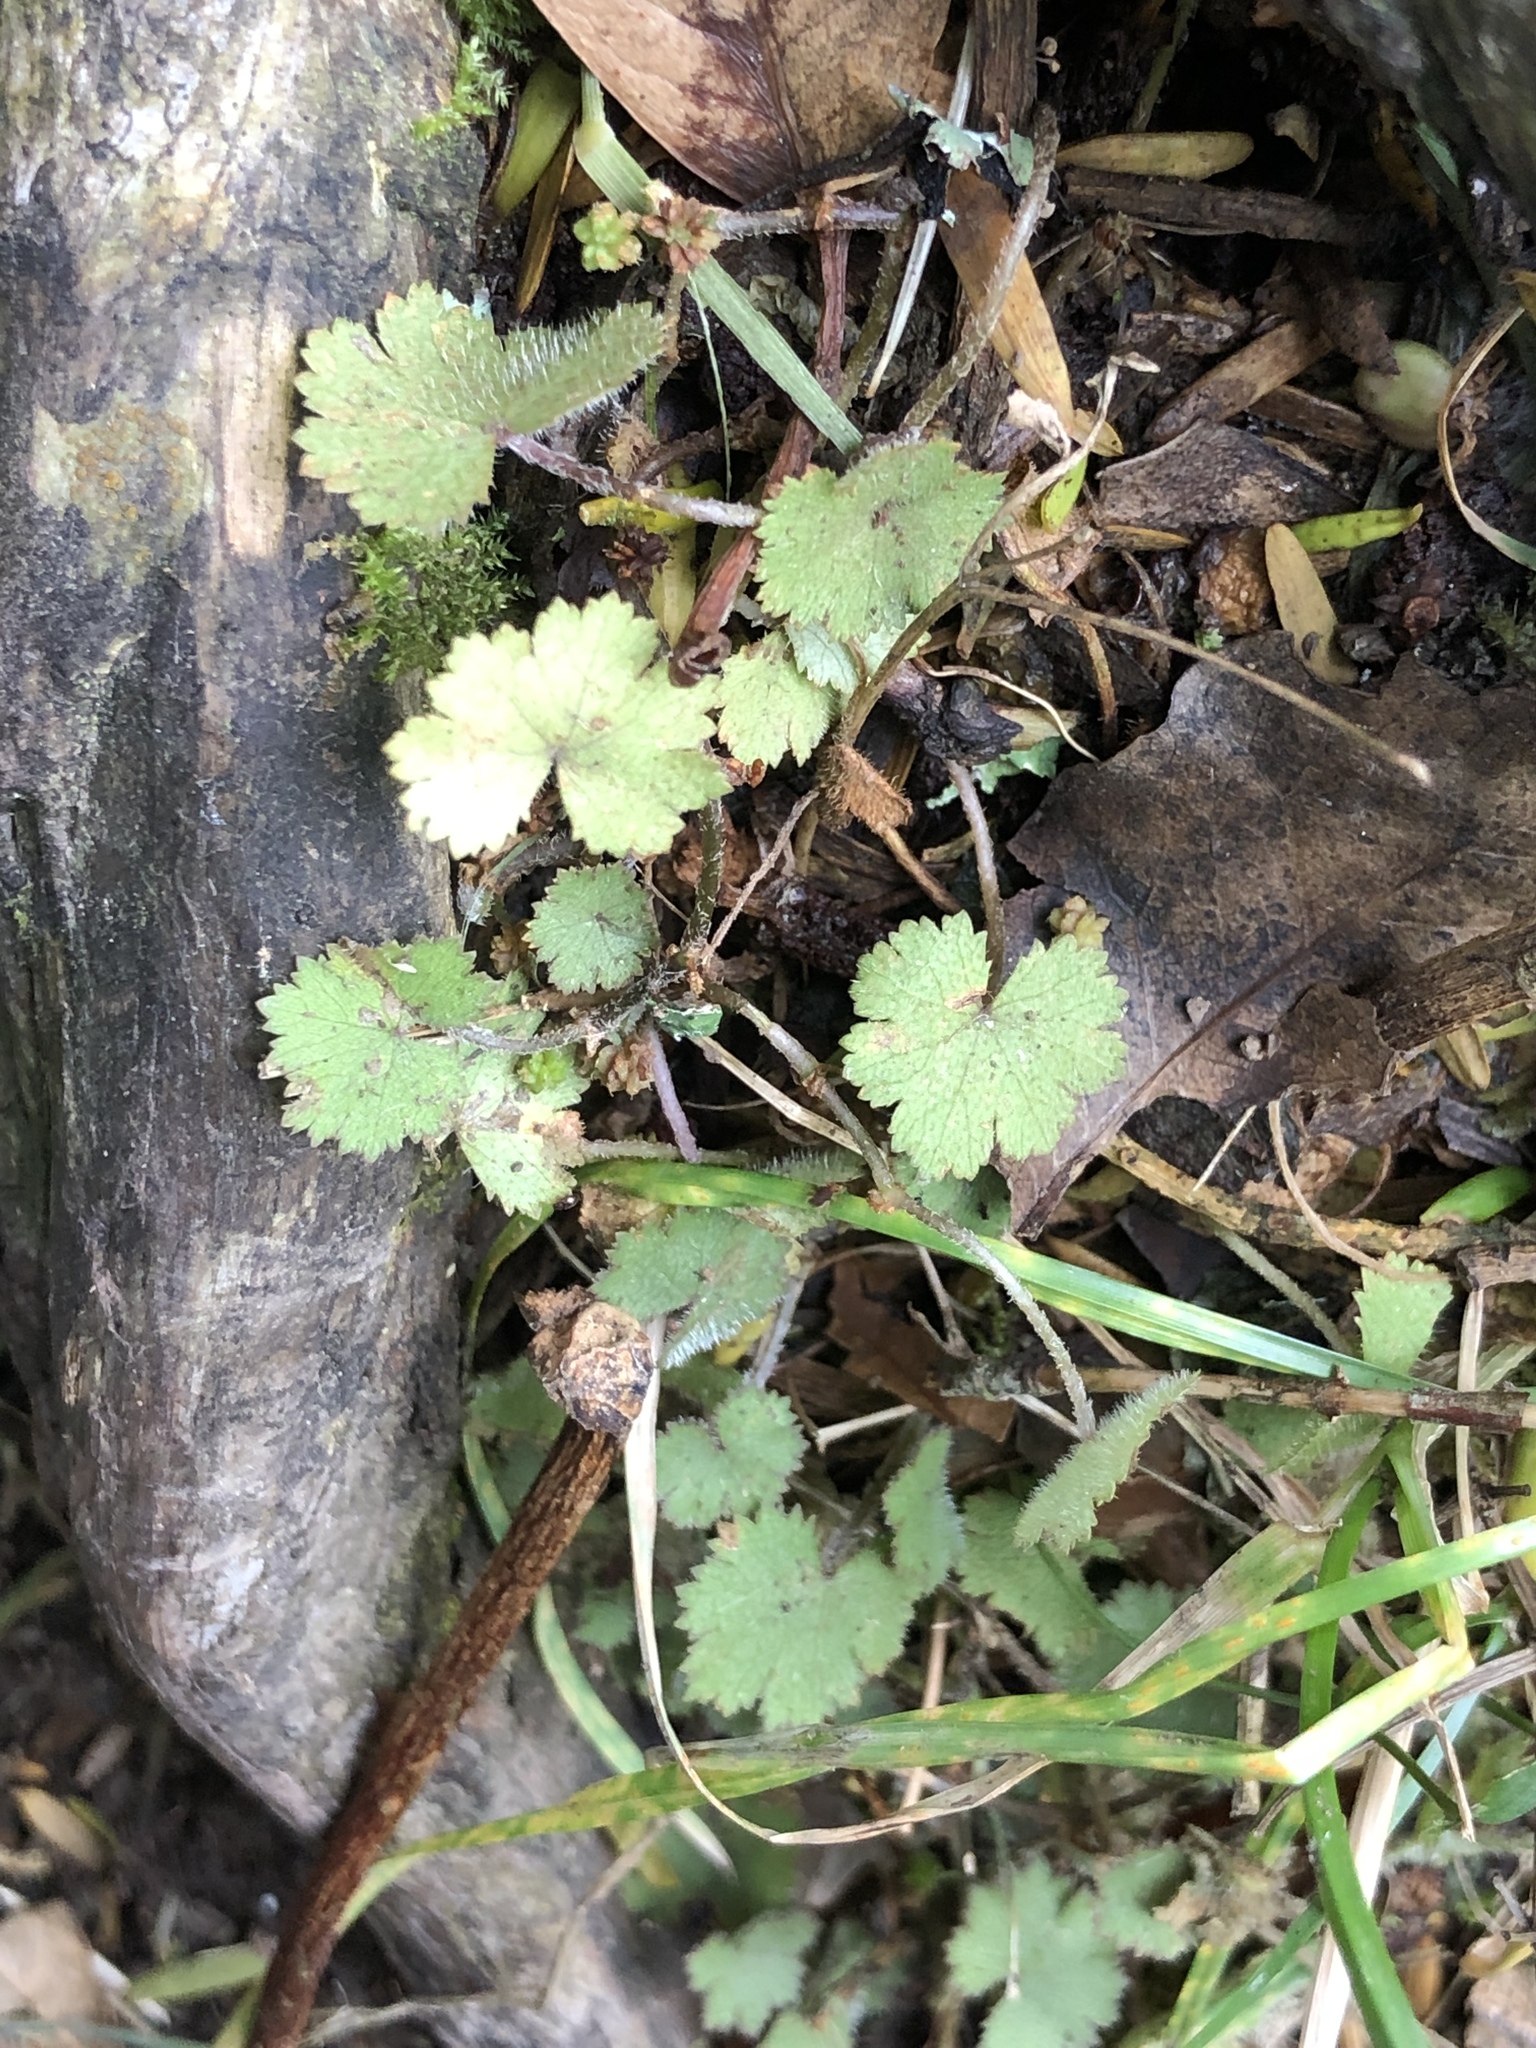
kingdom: Plantae
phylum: Tracheophyta
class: Magnoliopsida
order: Apiales
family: Araliaceae
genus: Hydrocotyle
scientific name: Hydrocotyle moschata
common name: Hairy pennywort
